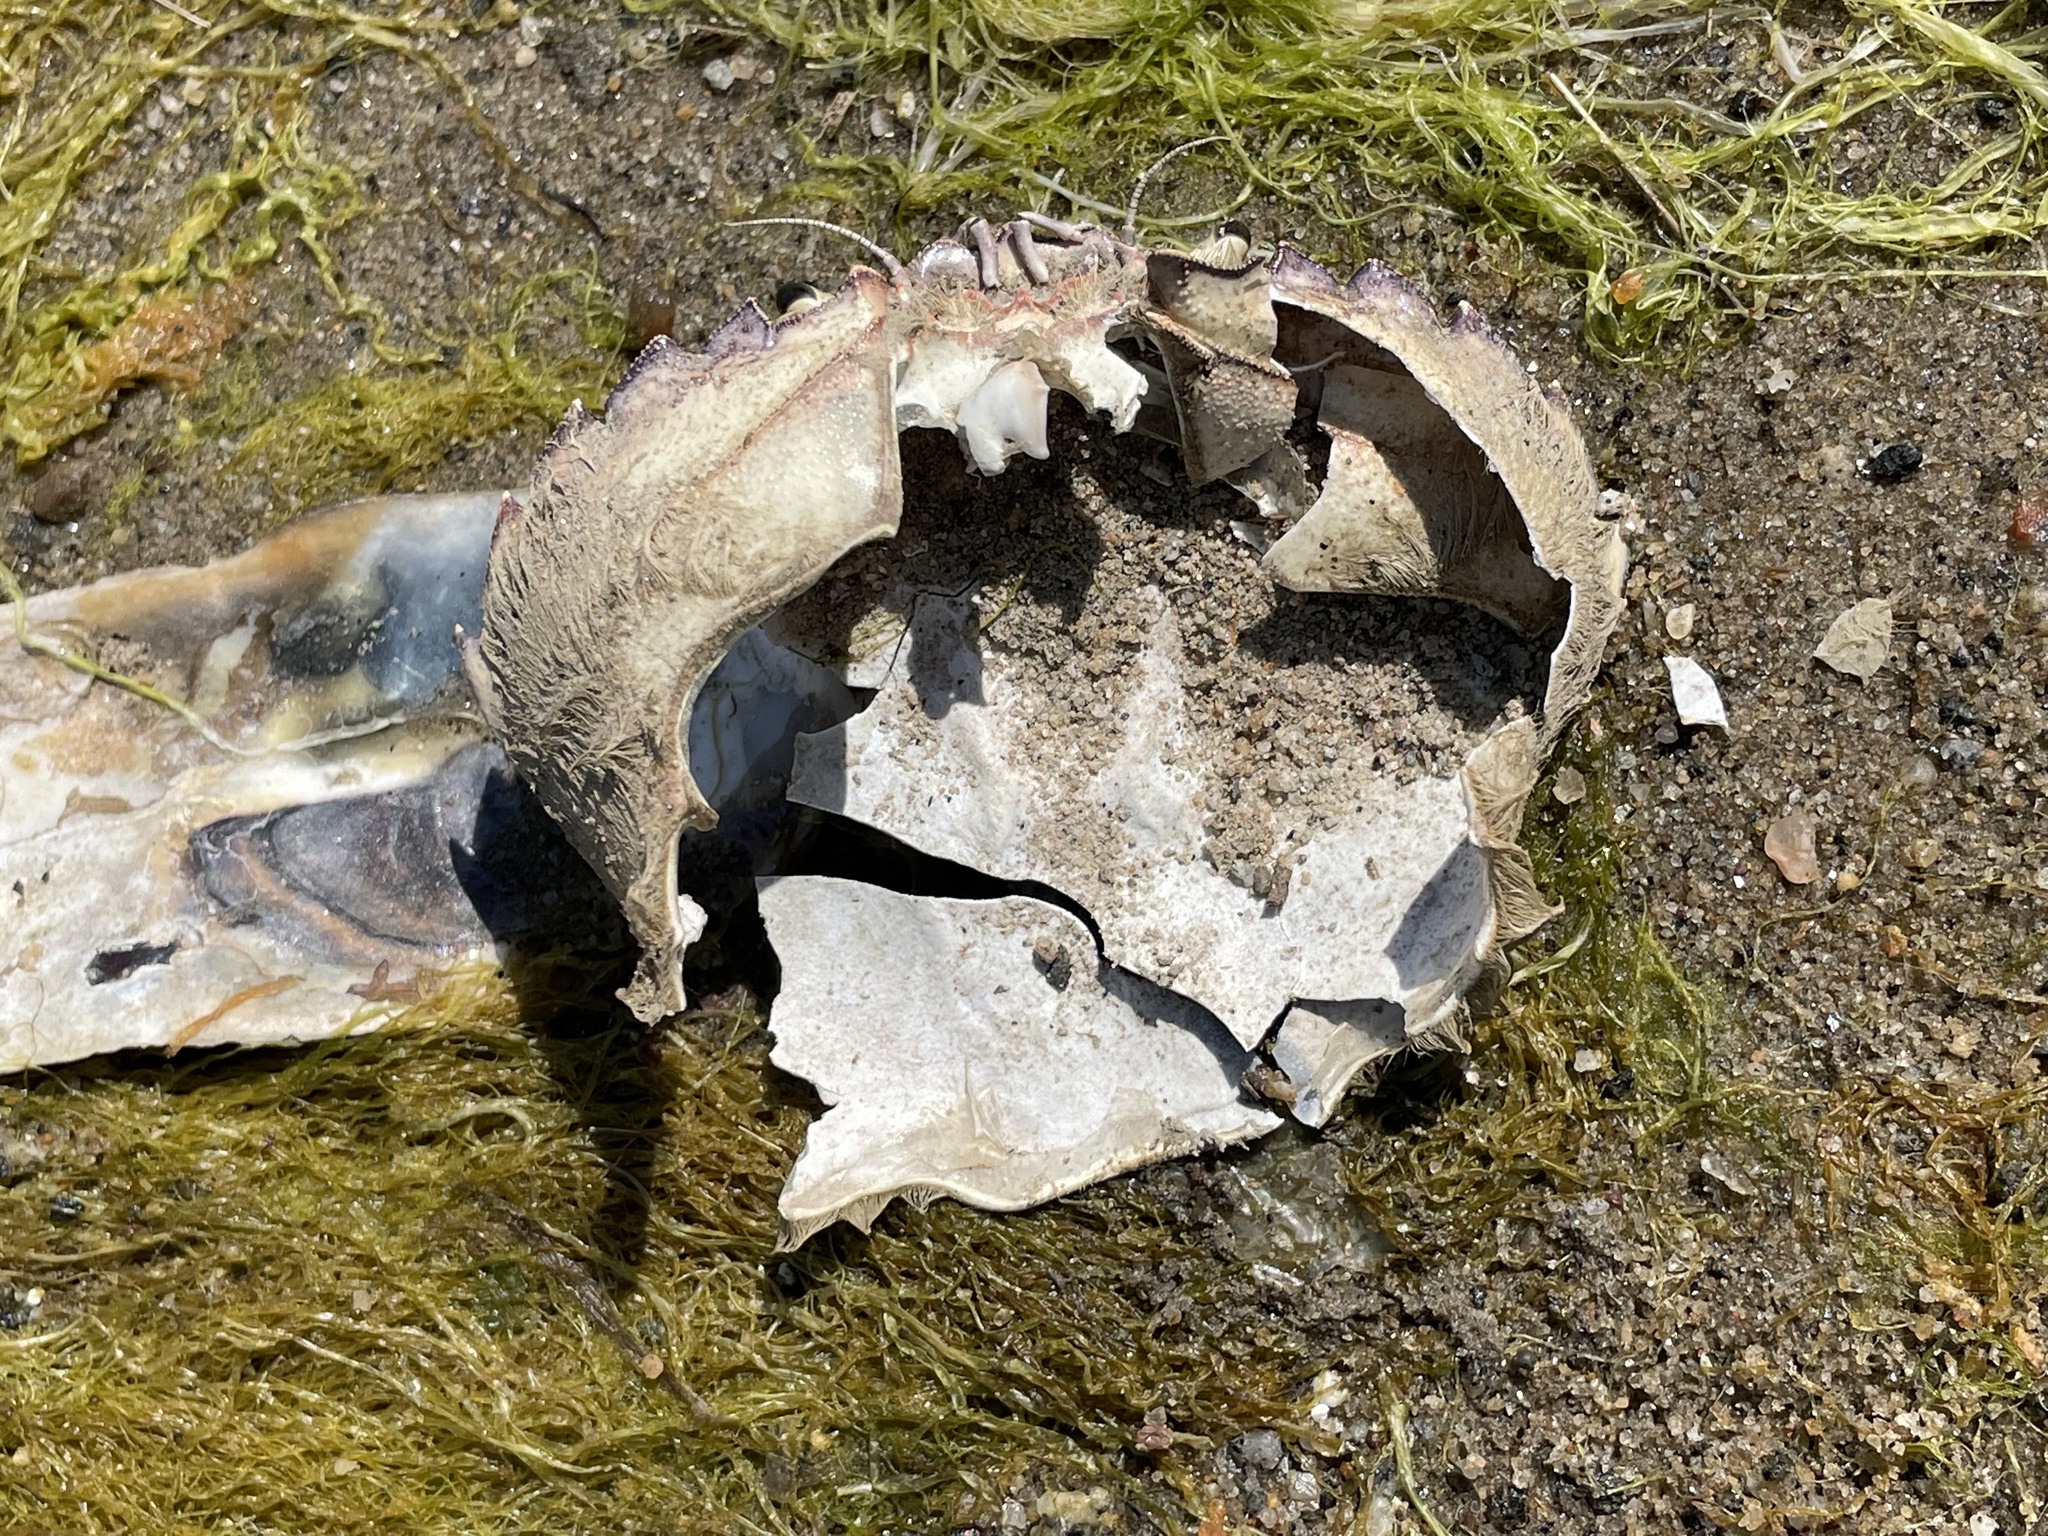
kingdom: Animalia
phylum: Arthropoda
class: Malacostraca
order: Decapoda
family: Carcinidae
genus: Carcinus
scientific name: Carcinus maenas
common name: European green crab
